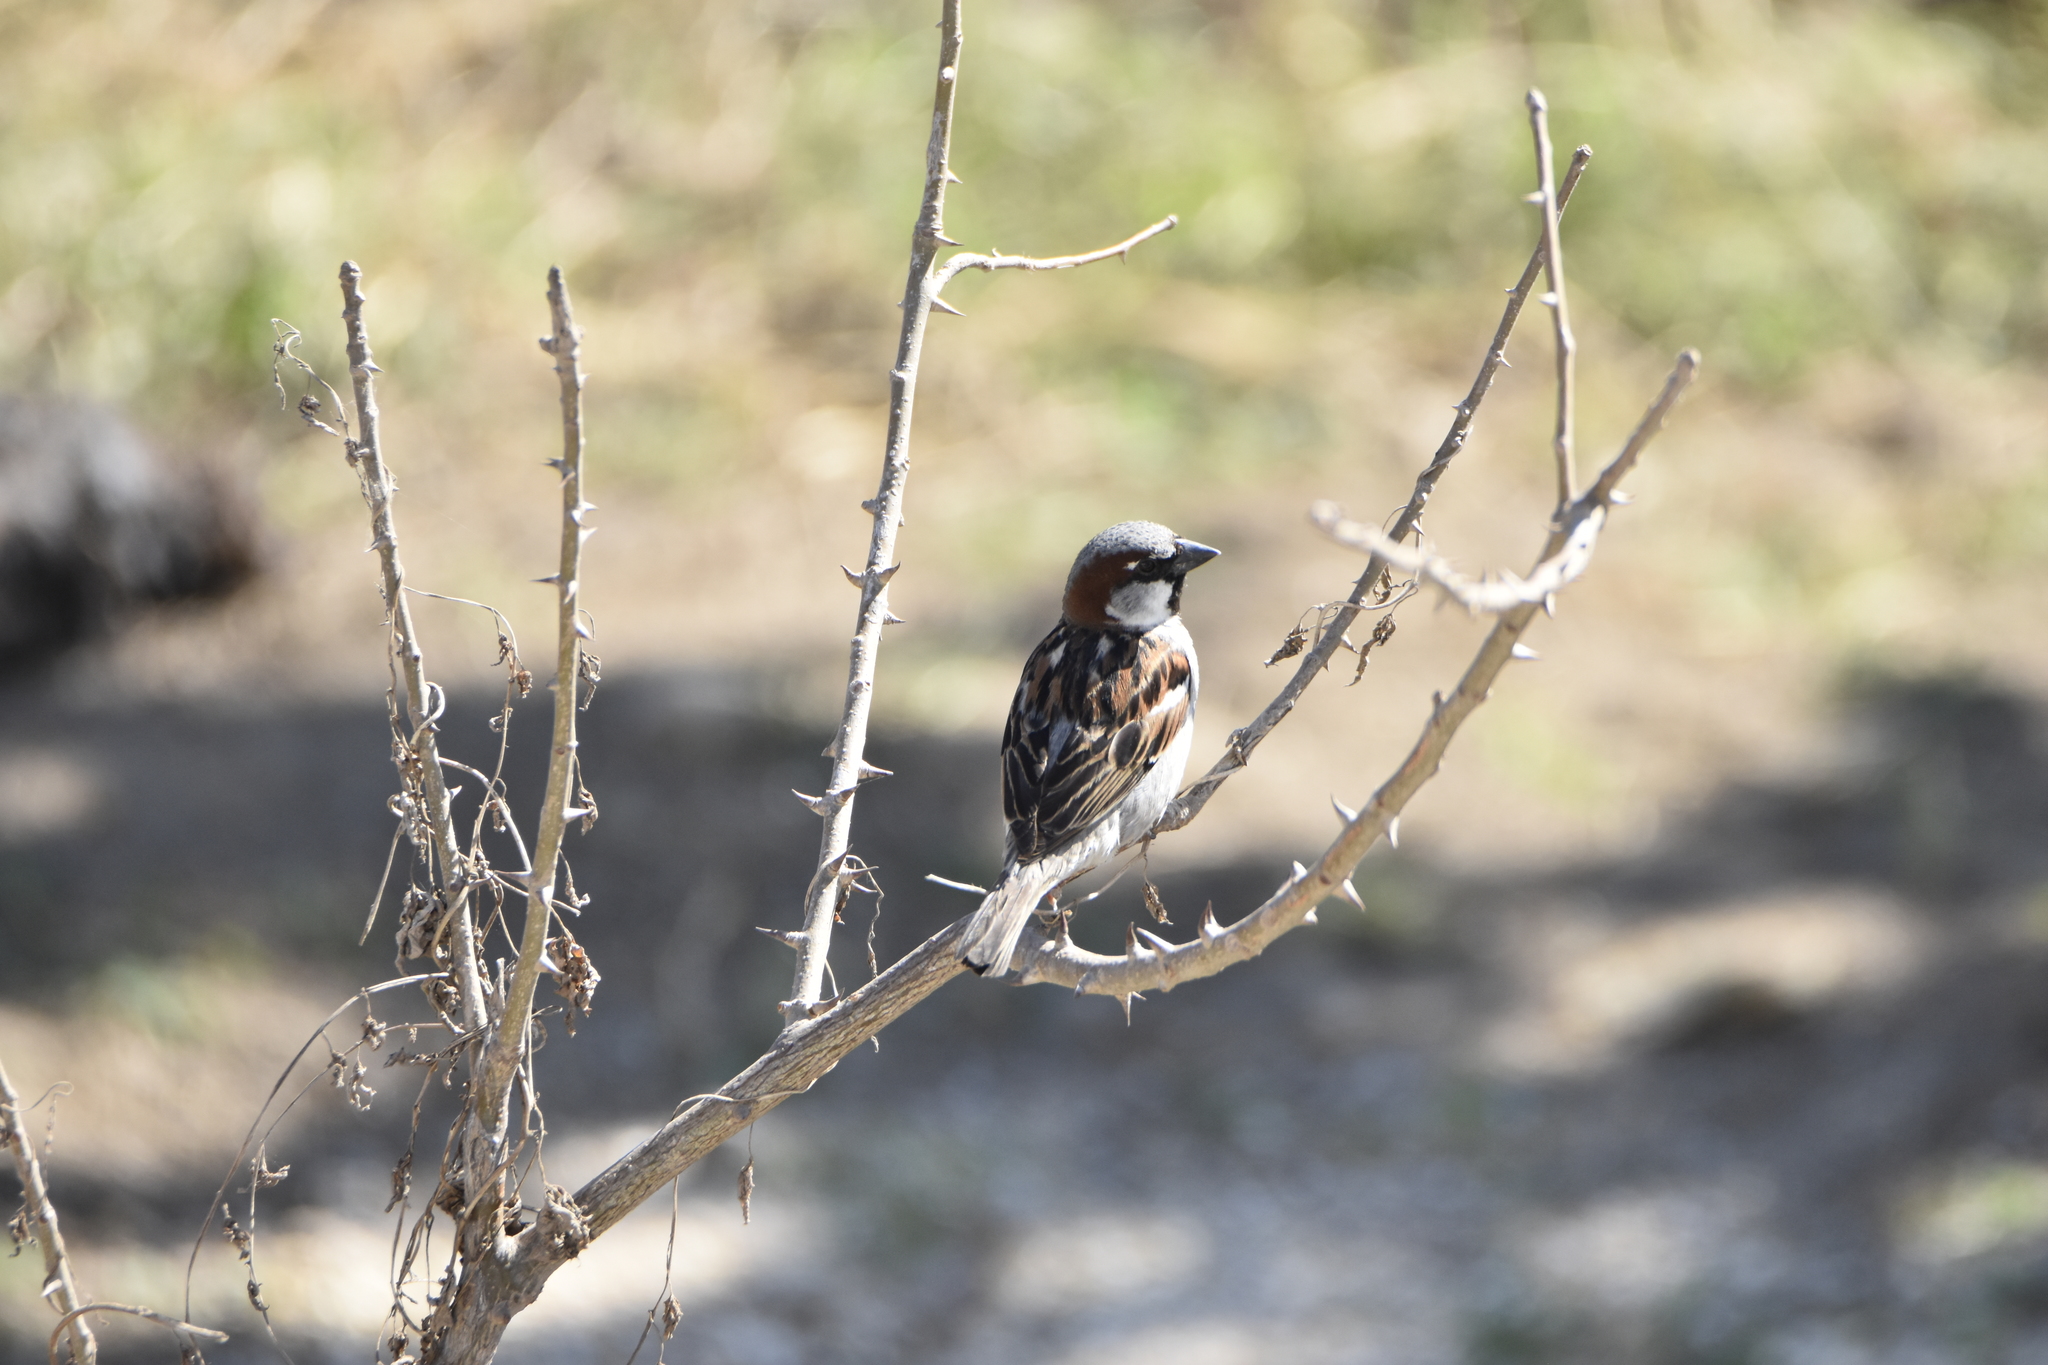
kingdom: Animalia
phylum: Chordata
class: Aves
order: Passeriformes
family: Passeridae
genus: Passer
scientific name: Passer domesticus
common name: House sparrow
